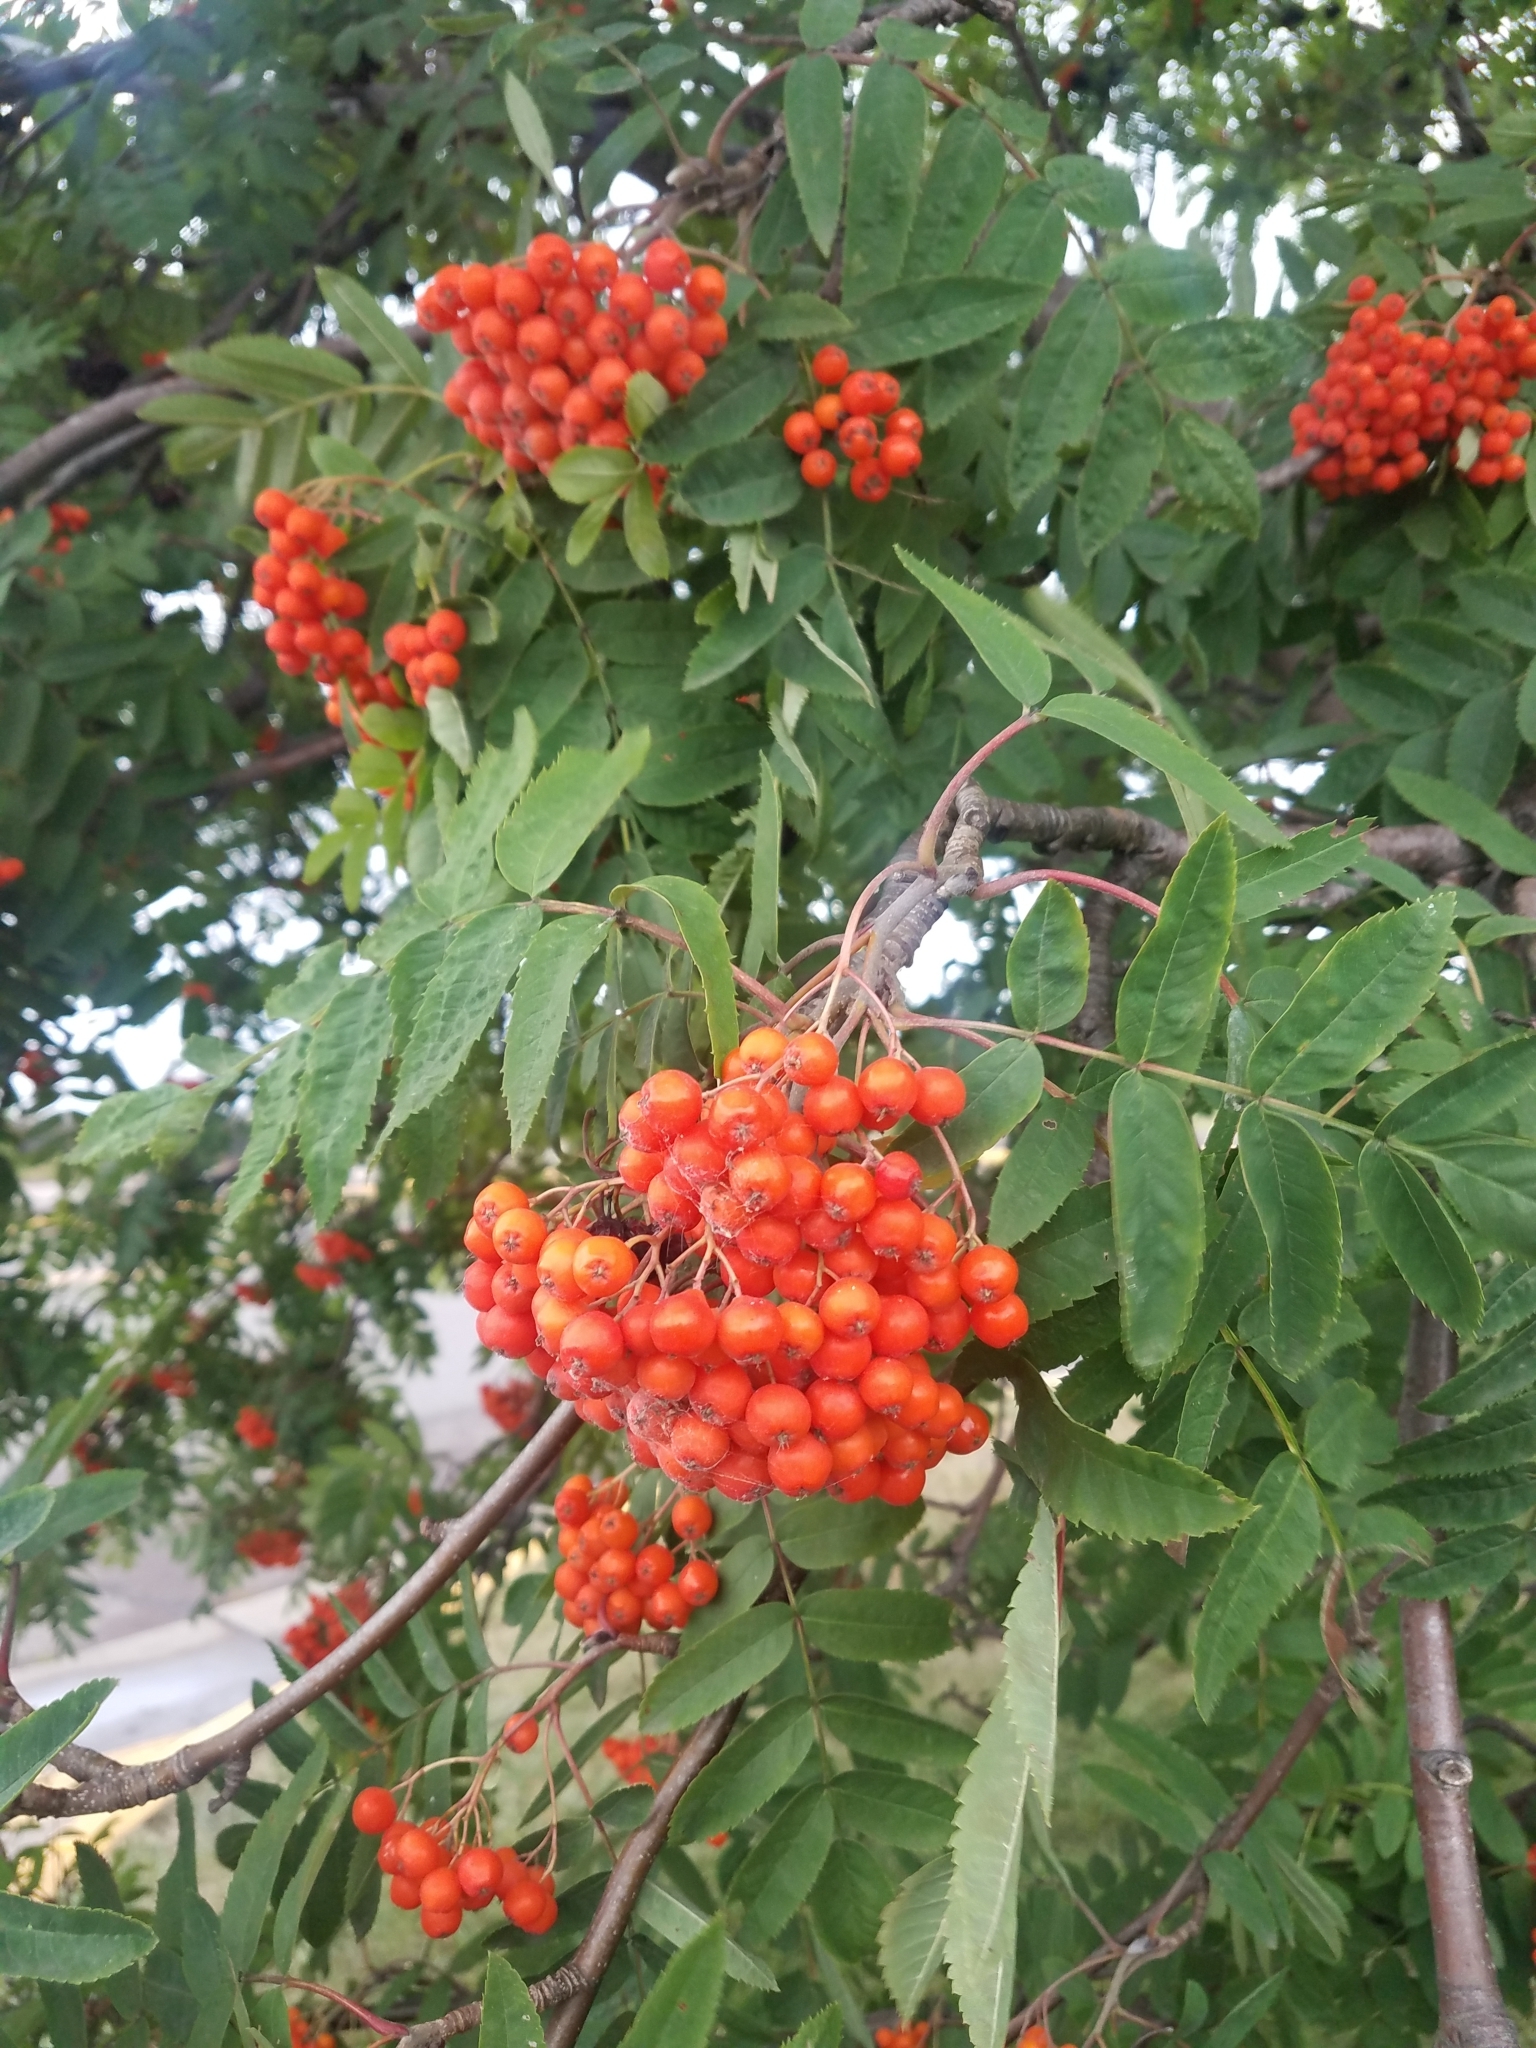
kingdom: Plantae
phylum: Tracheophyta
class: Magnoliopsida
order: Rosales
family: Rosaceae
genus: Sorbus
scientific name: Sorbus aucuparia
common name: Rowan
